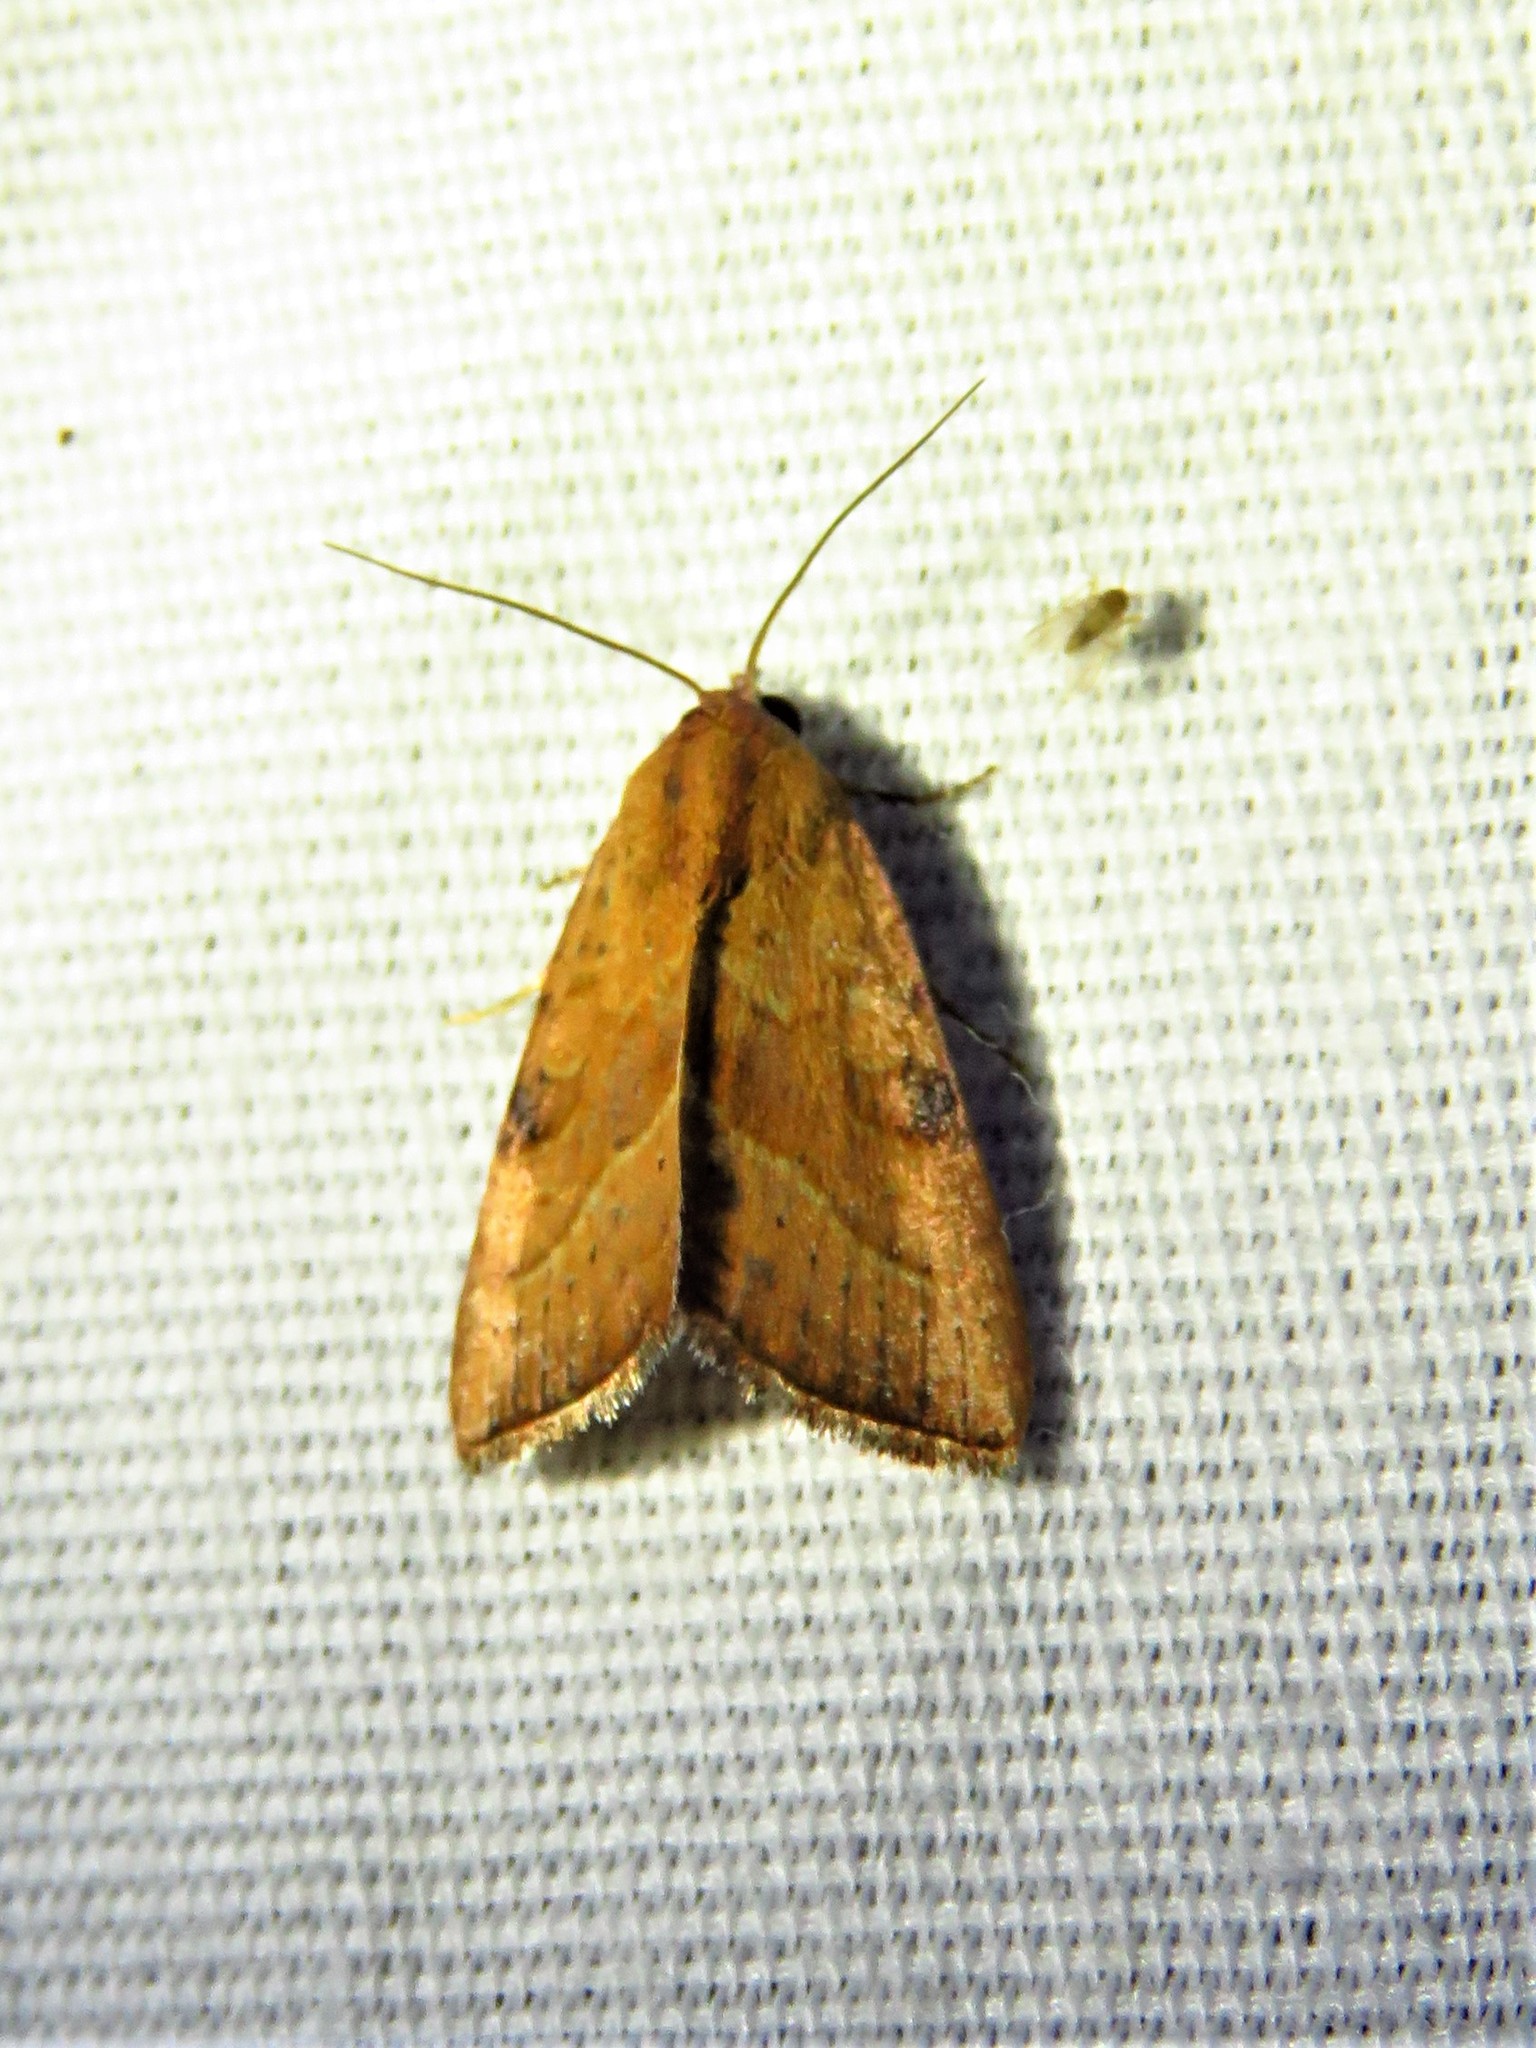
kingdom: Animalia
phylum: Arthropoda
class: Insecta
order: Lepidoptera
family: Noctuidae
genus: Galgula
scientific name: Galgula partita
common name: Wedgeling
